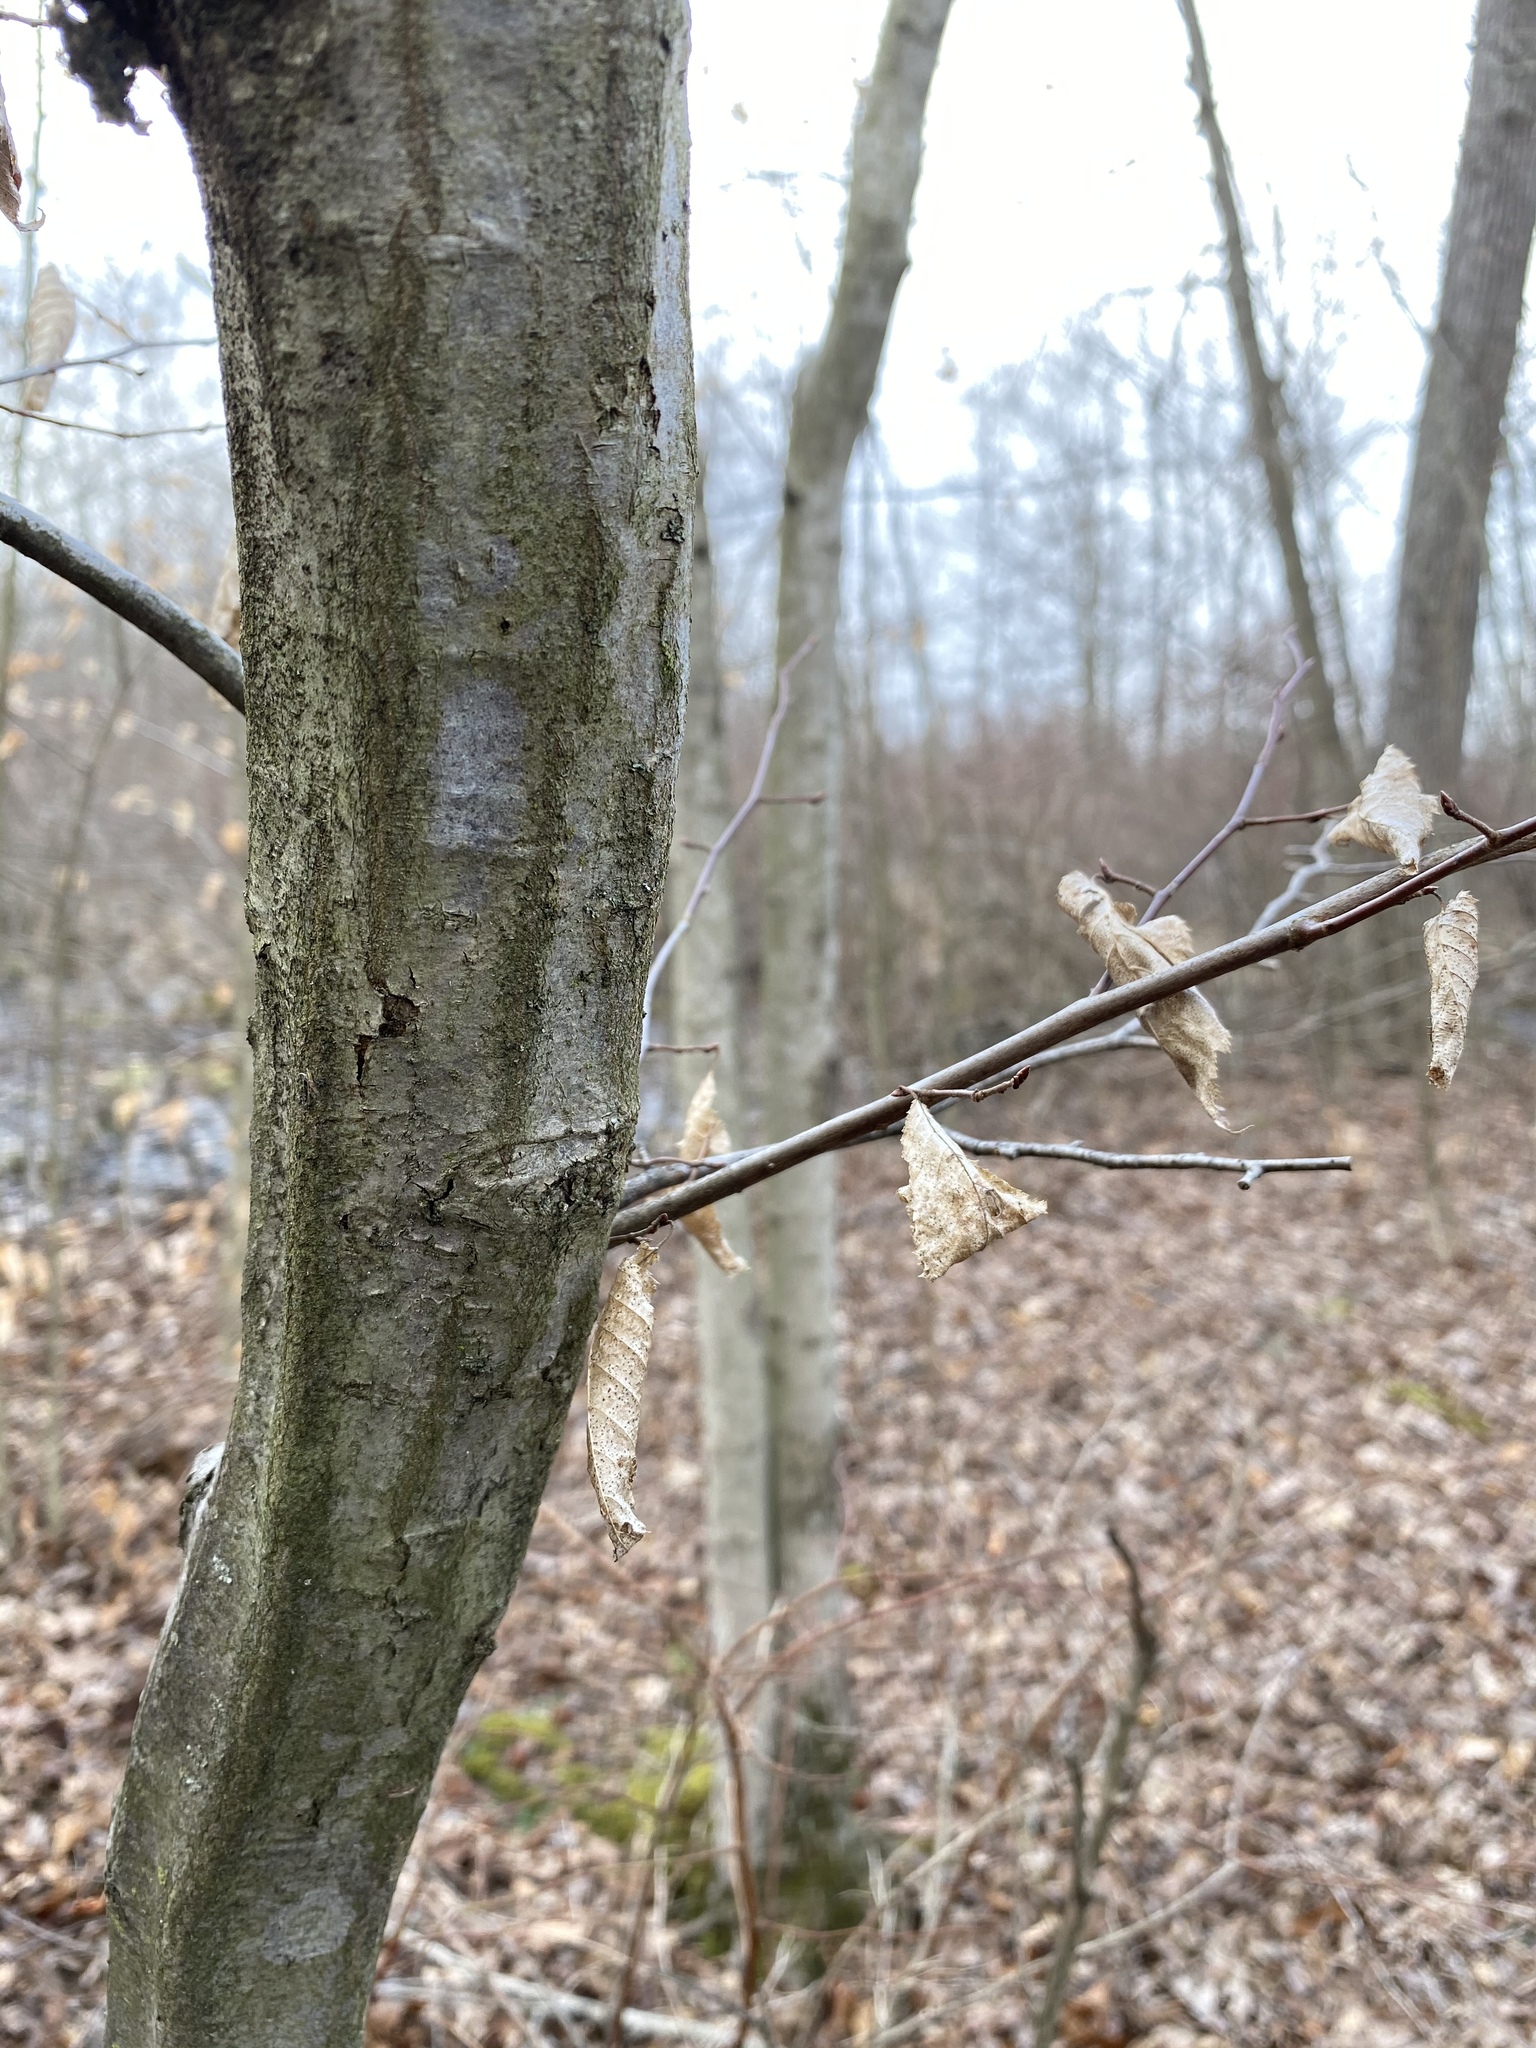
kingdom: Plantae
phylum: Tracheophyta
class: Magnoliopsida
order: Fagales
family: Betulaceae
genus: Carpinus
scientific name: Carpinus caroliniana
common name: American hornbeam
